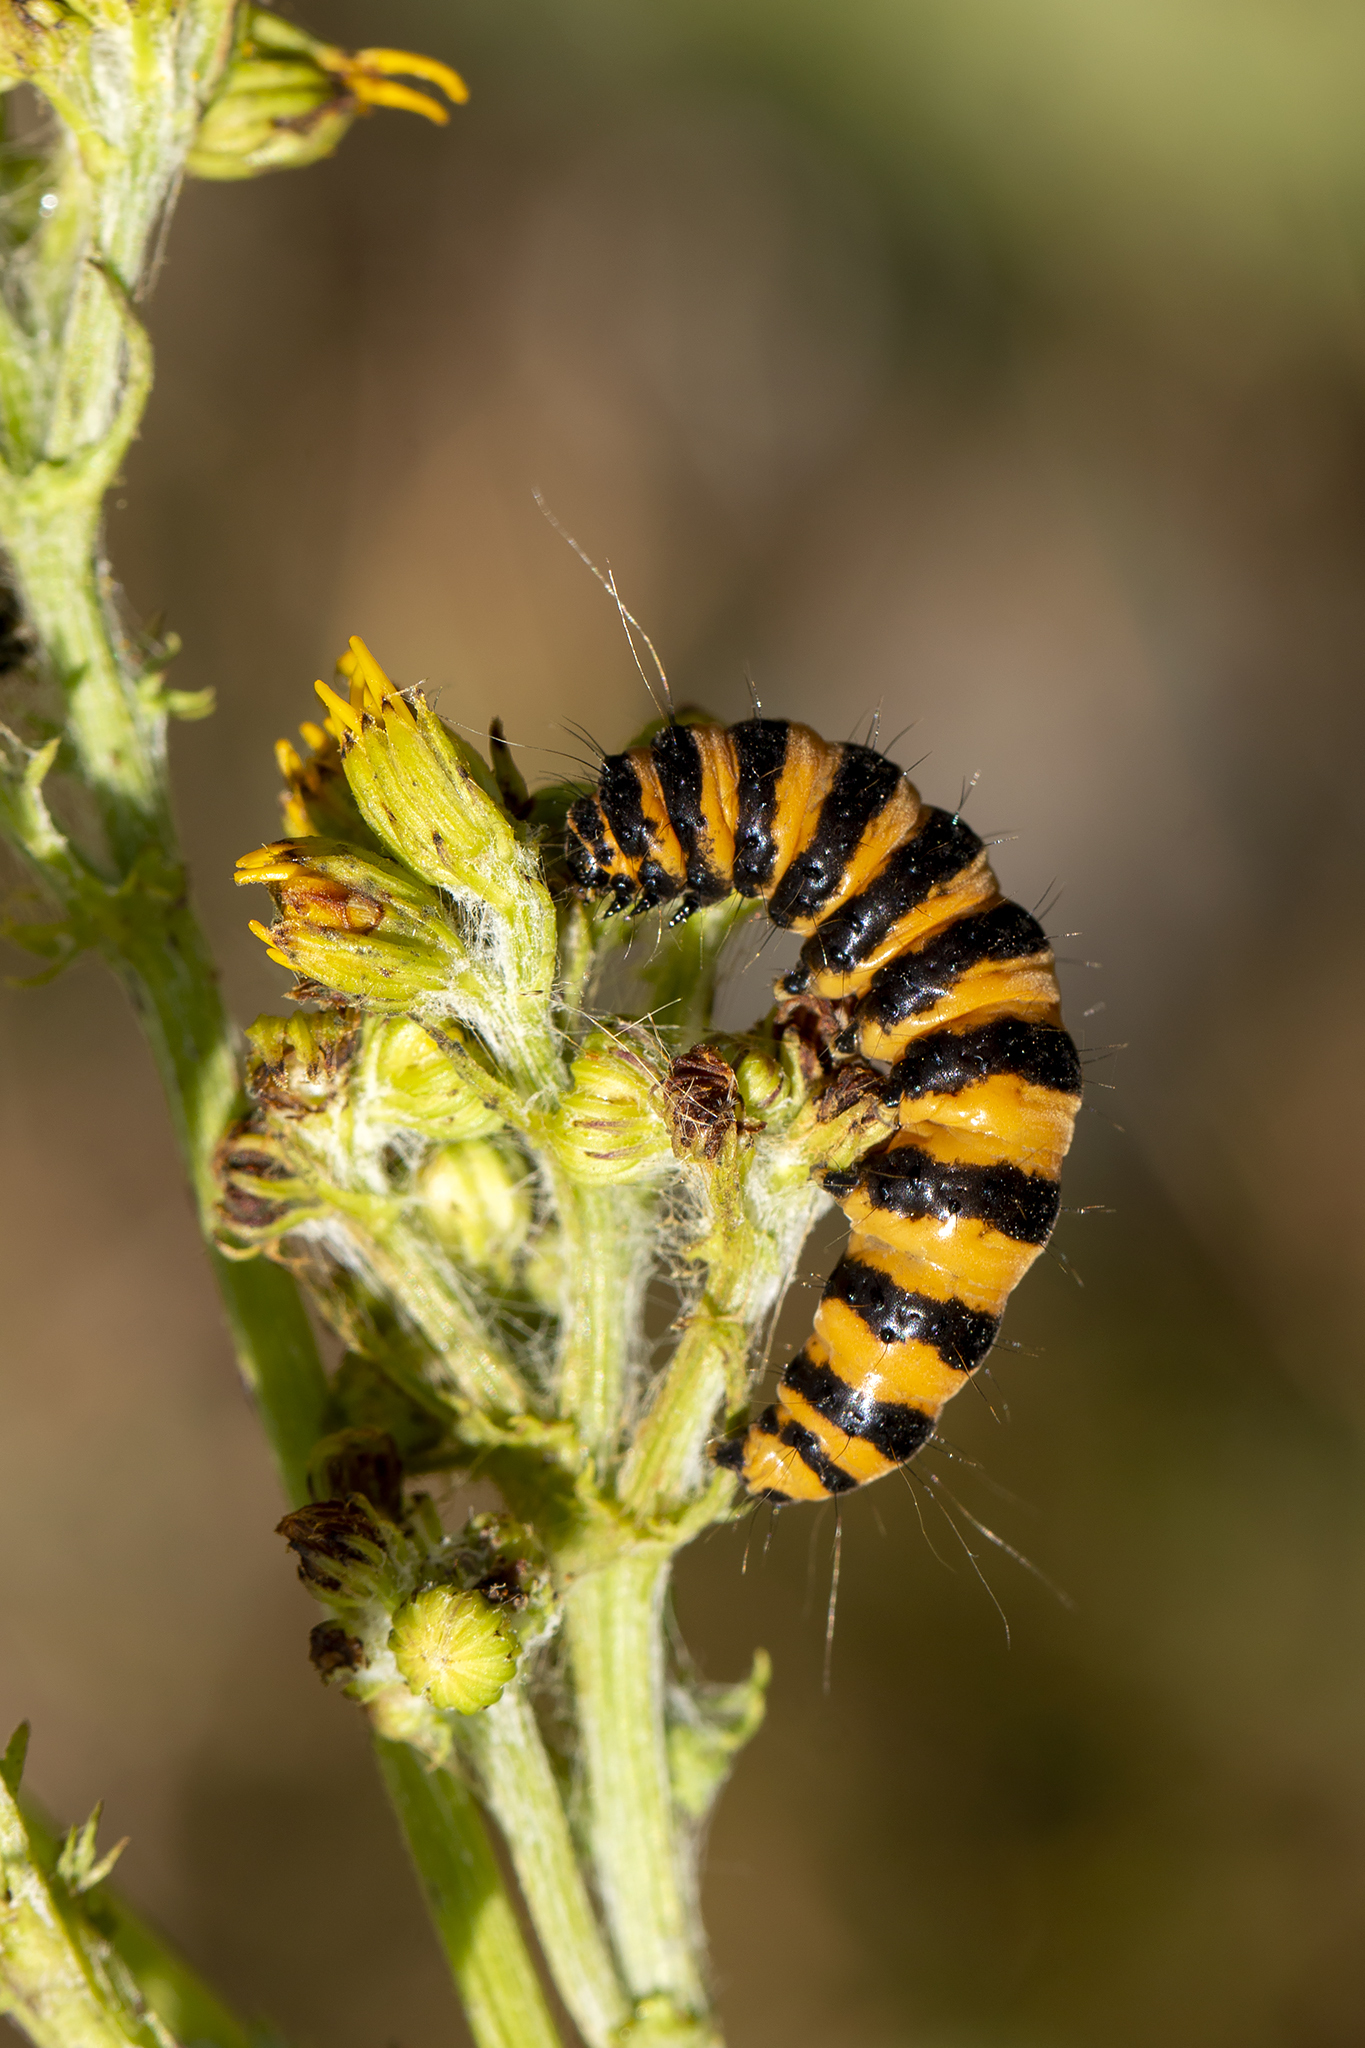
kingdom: Animalia
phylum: Arthropoda
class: Insecta
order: Lepidoptera
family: Erebidae
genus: Tyria
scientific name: Tyria jacobaeae
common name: Cinnabar
